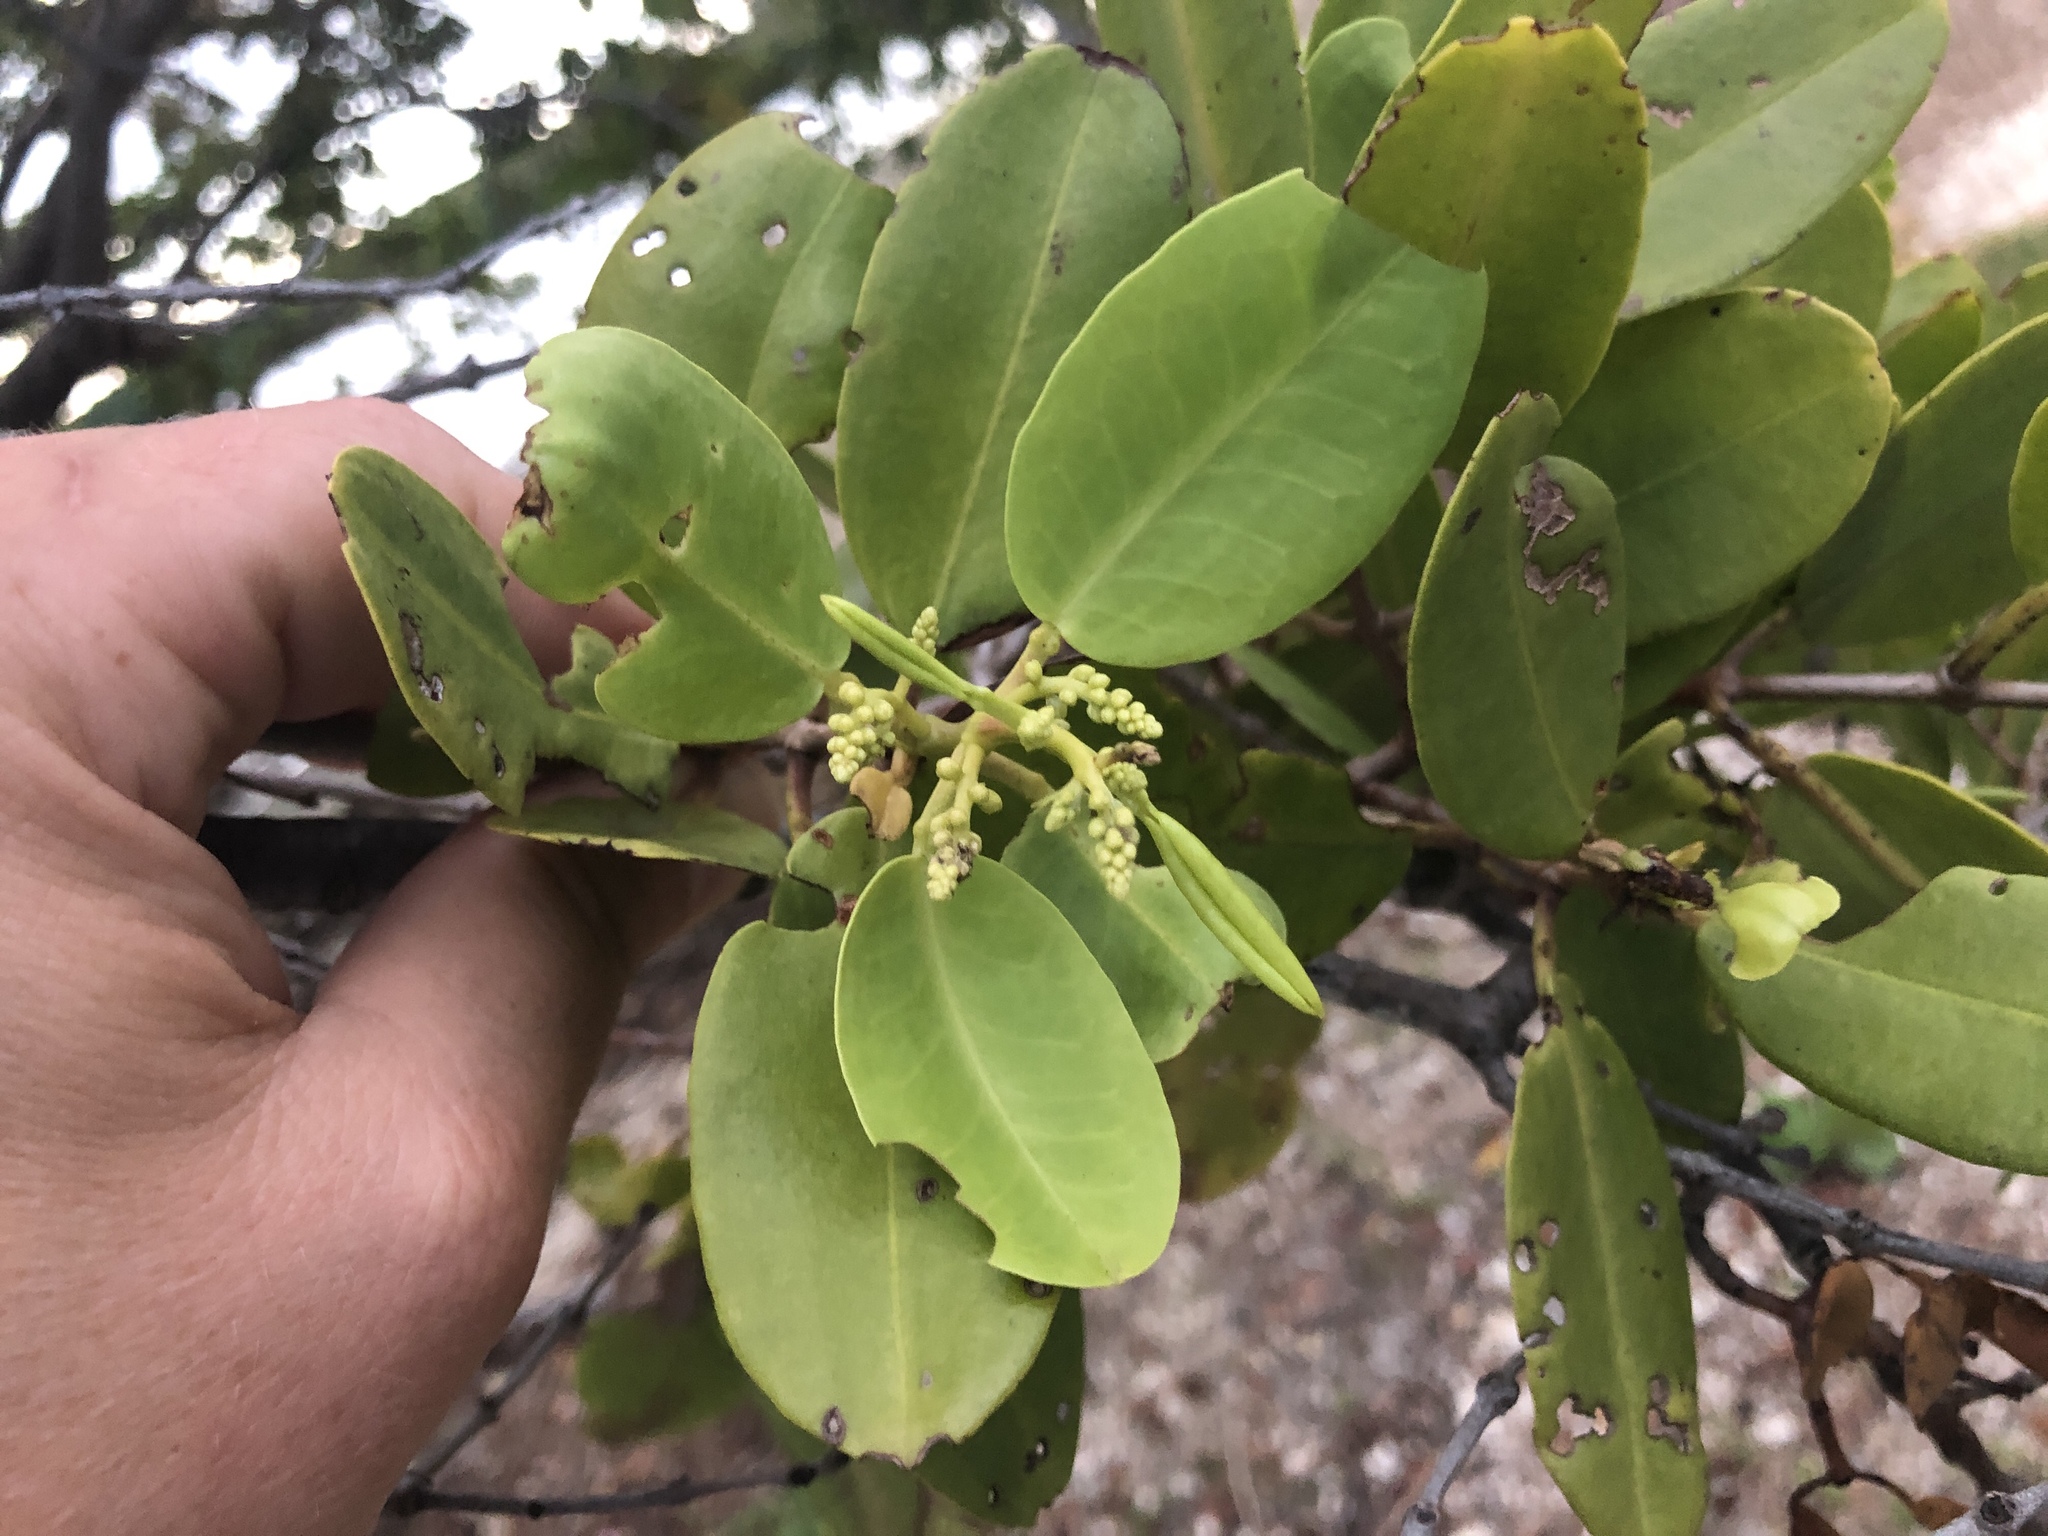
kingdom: Plantae
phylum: Tracheophyta
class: Magnoliopsida
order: Myrtales
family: Combretaceae
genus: Laguncularia
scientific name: Laguncularia racemosa
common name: White mangrove
